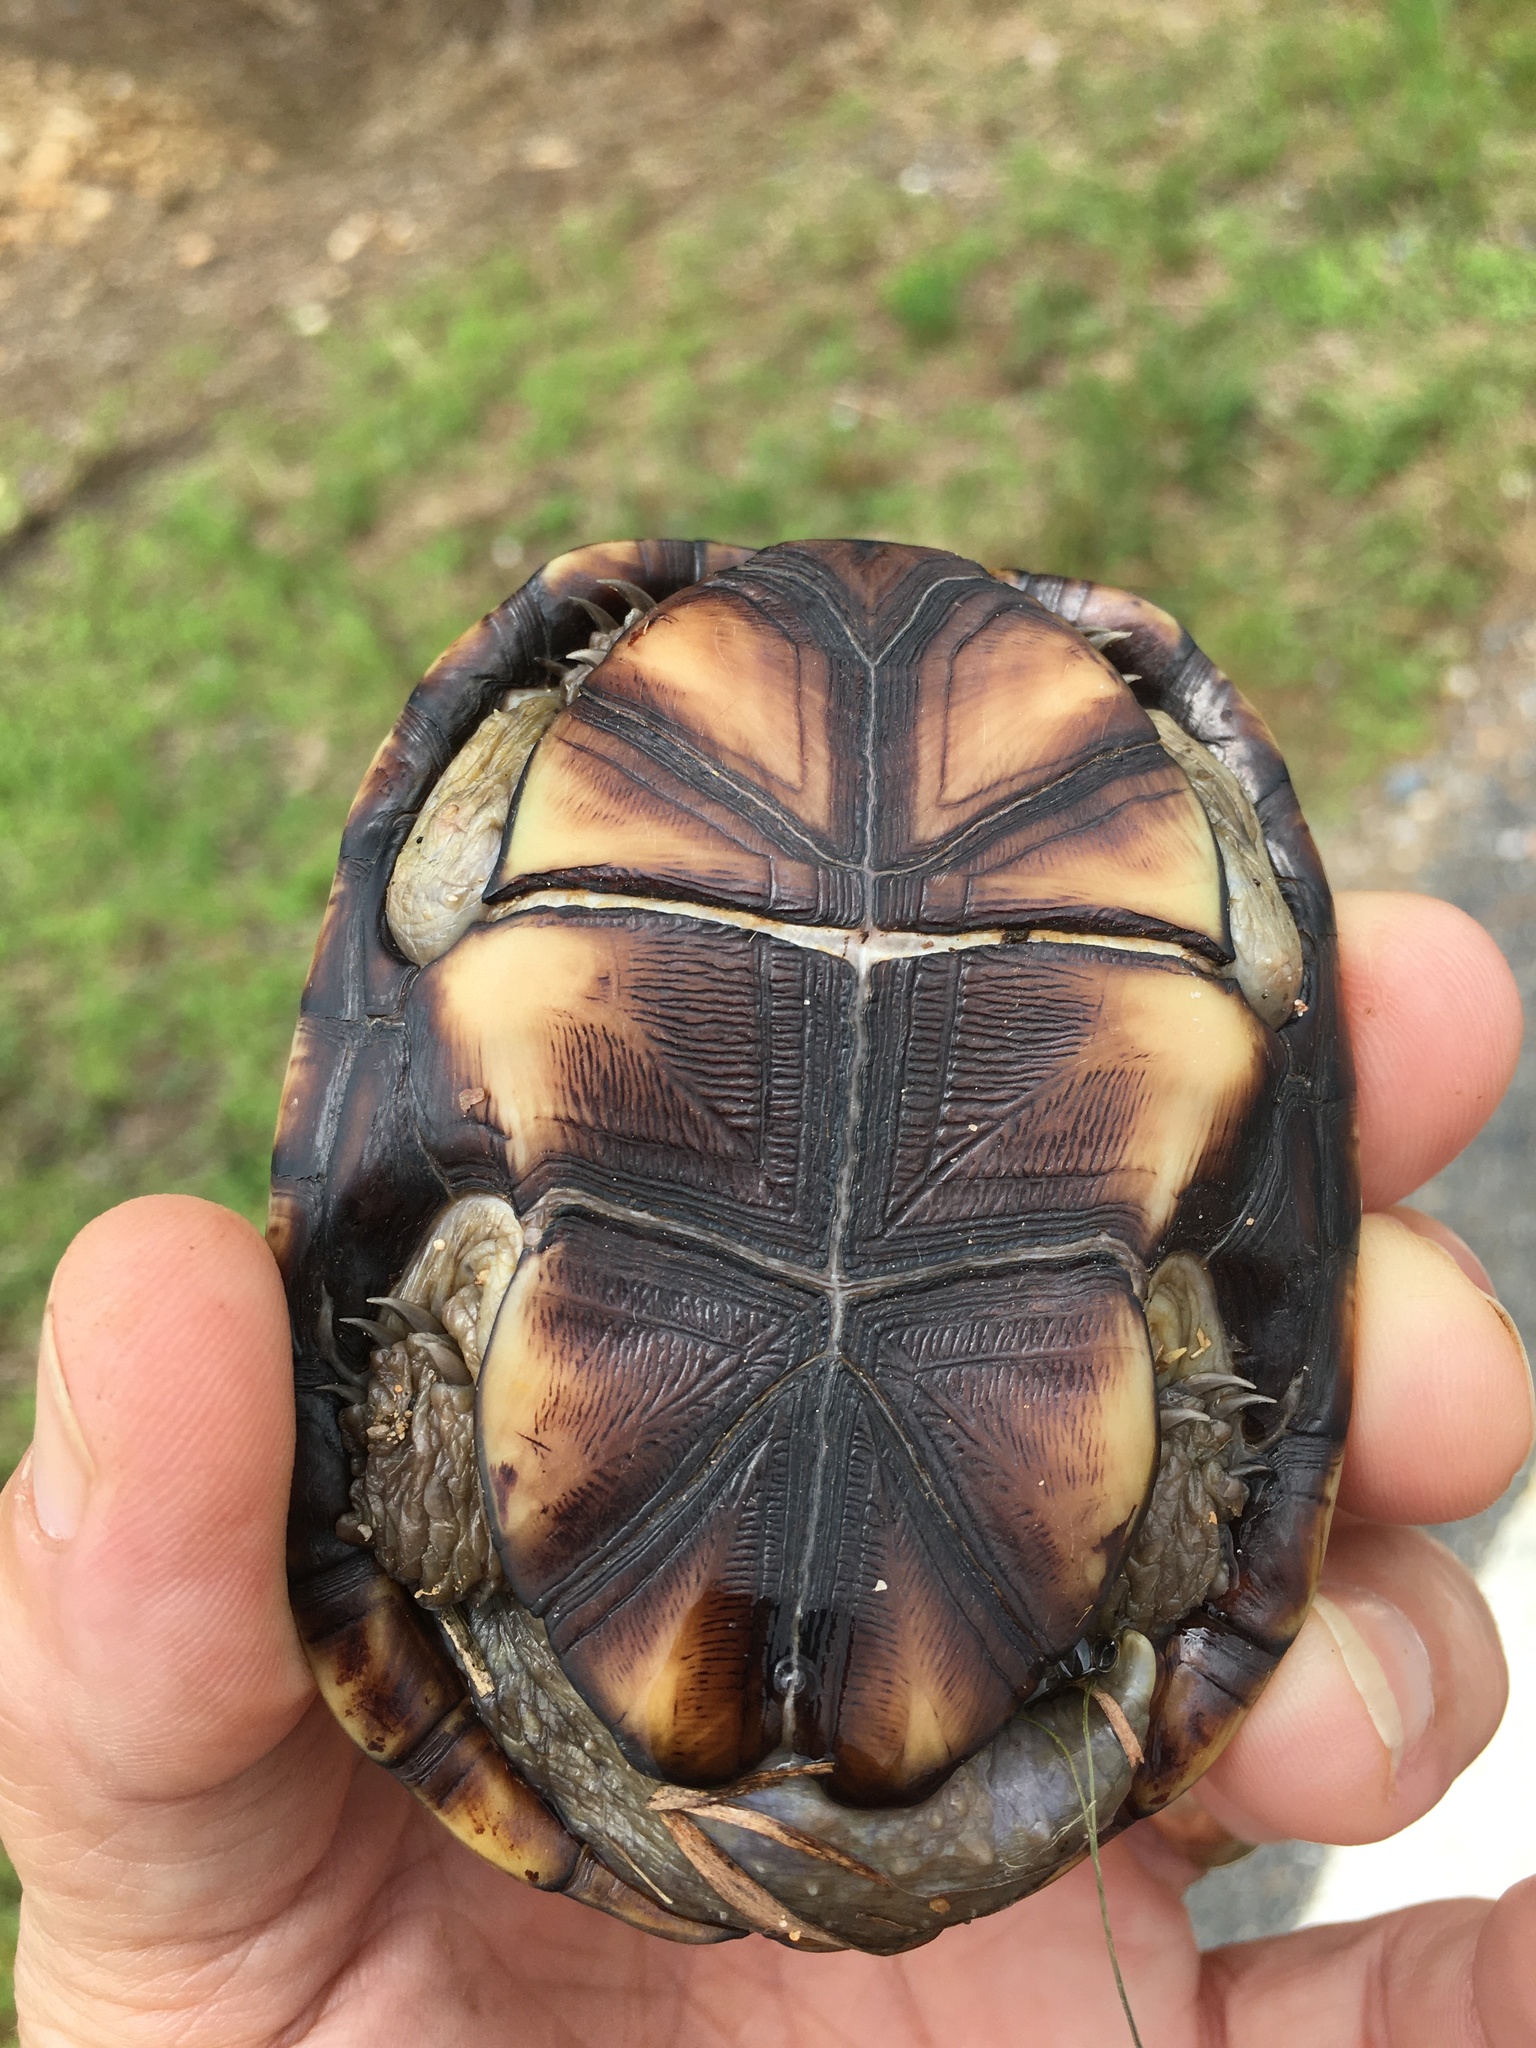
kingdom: Animalia
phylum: Chordata
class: Testudines
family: Kinosternidae
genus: Kinosternon
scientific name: Kinosternon subrubrum
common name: Eastern mud turtle
